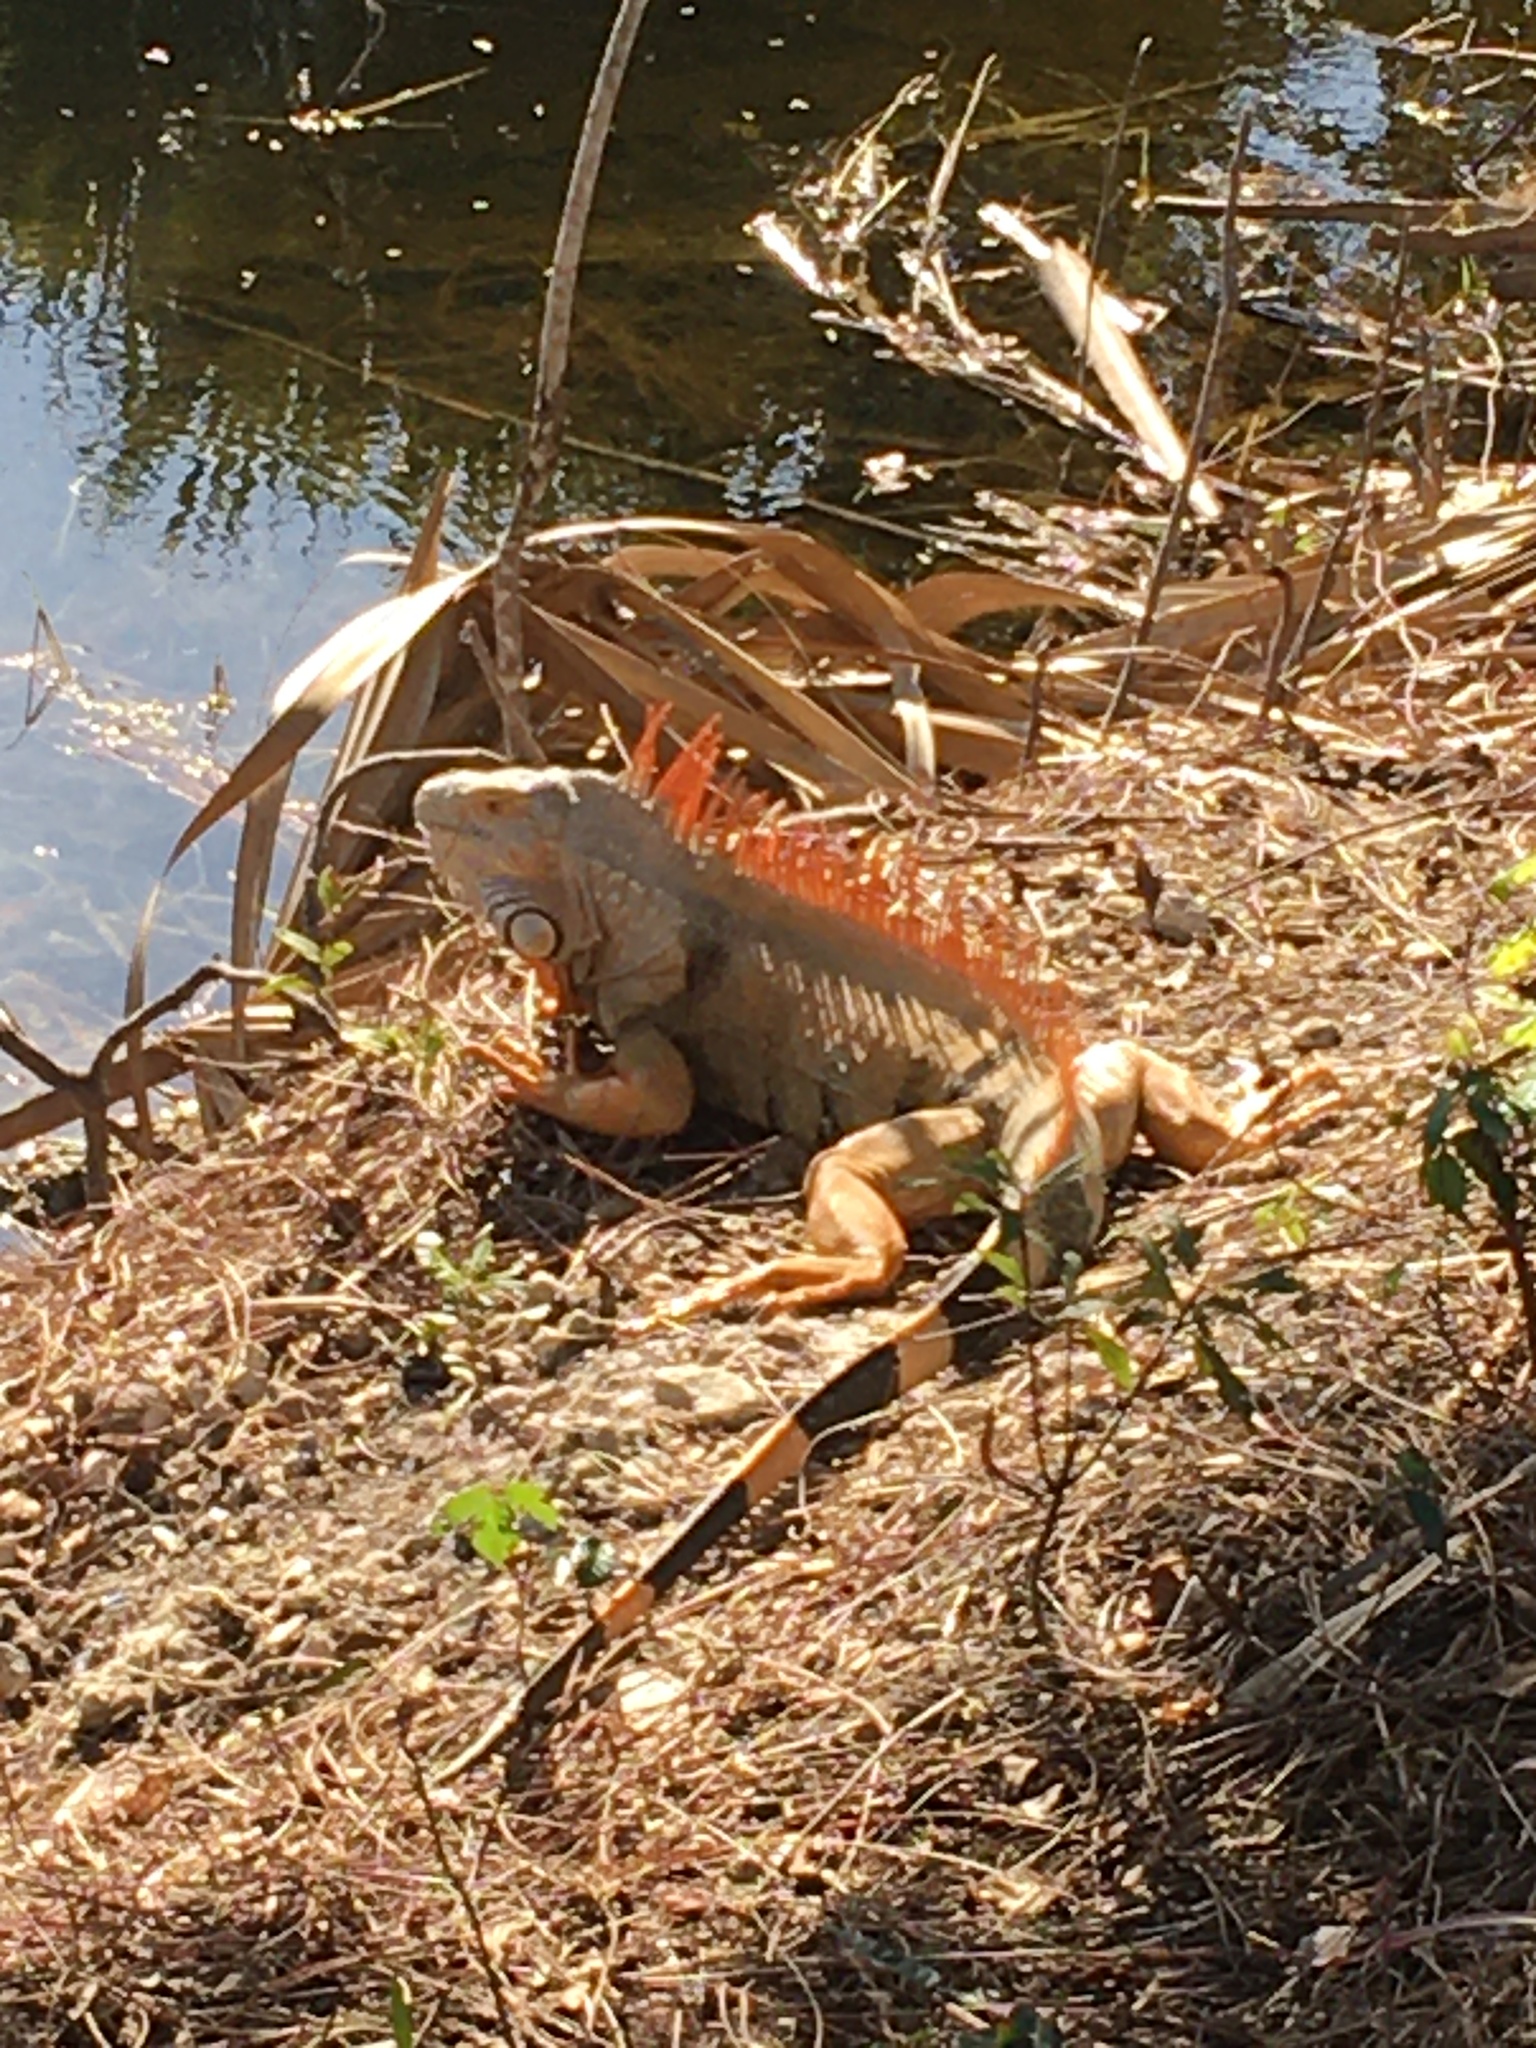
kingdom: Animalia
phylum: Chordata
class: Squamata
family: Iguanidae
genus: Iguana
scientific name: Iguana iguana
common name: Green iguana
